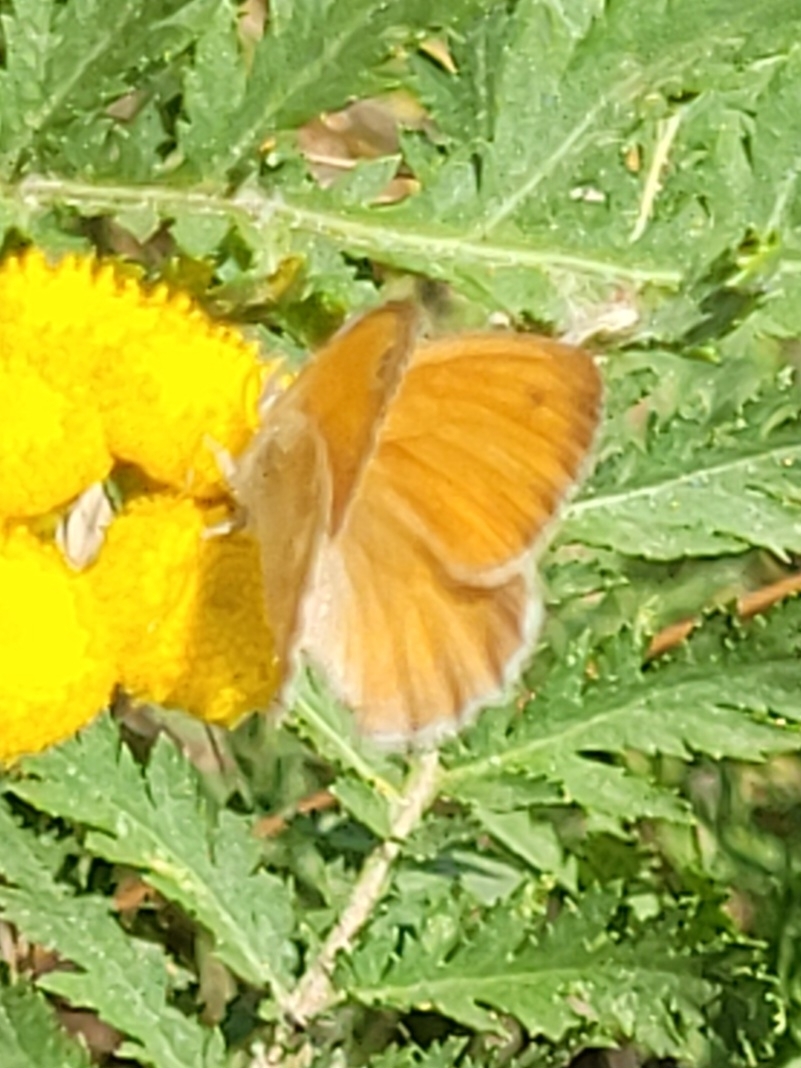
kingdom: Animalia
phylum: Arthropoda
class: Insecta
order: Lepidoptera
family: Nymphalidae
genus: Coenonympha
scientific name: Coenonympha pamphilus
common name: Small heath
